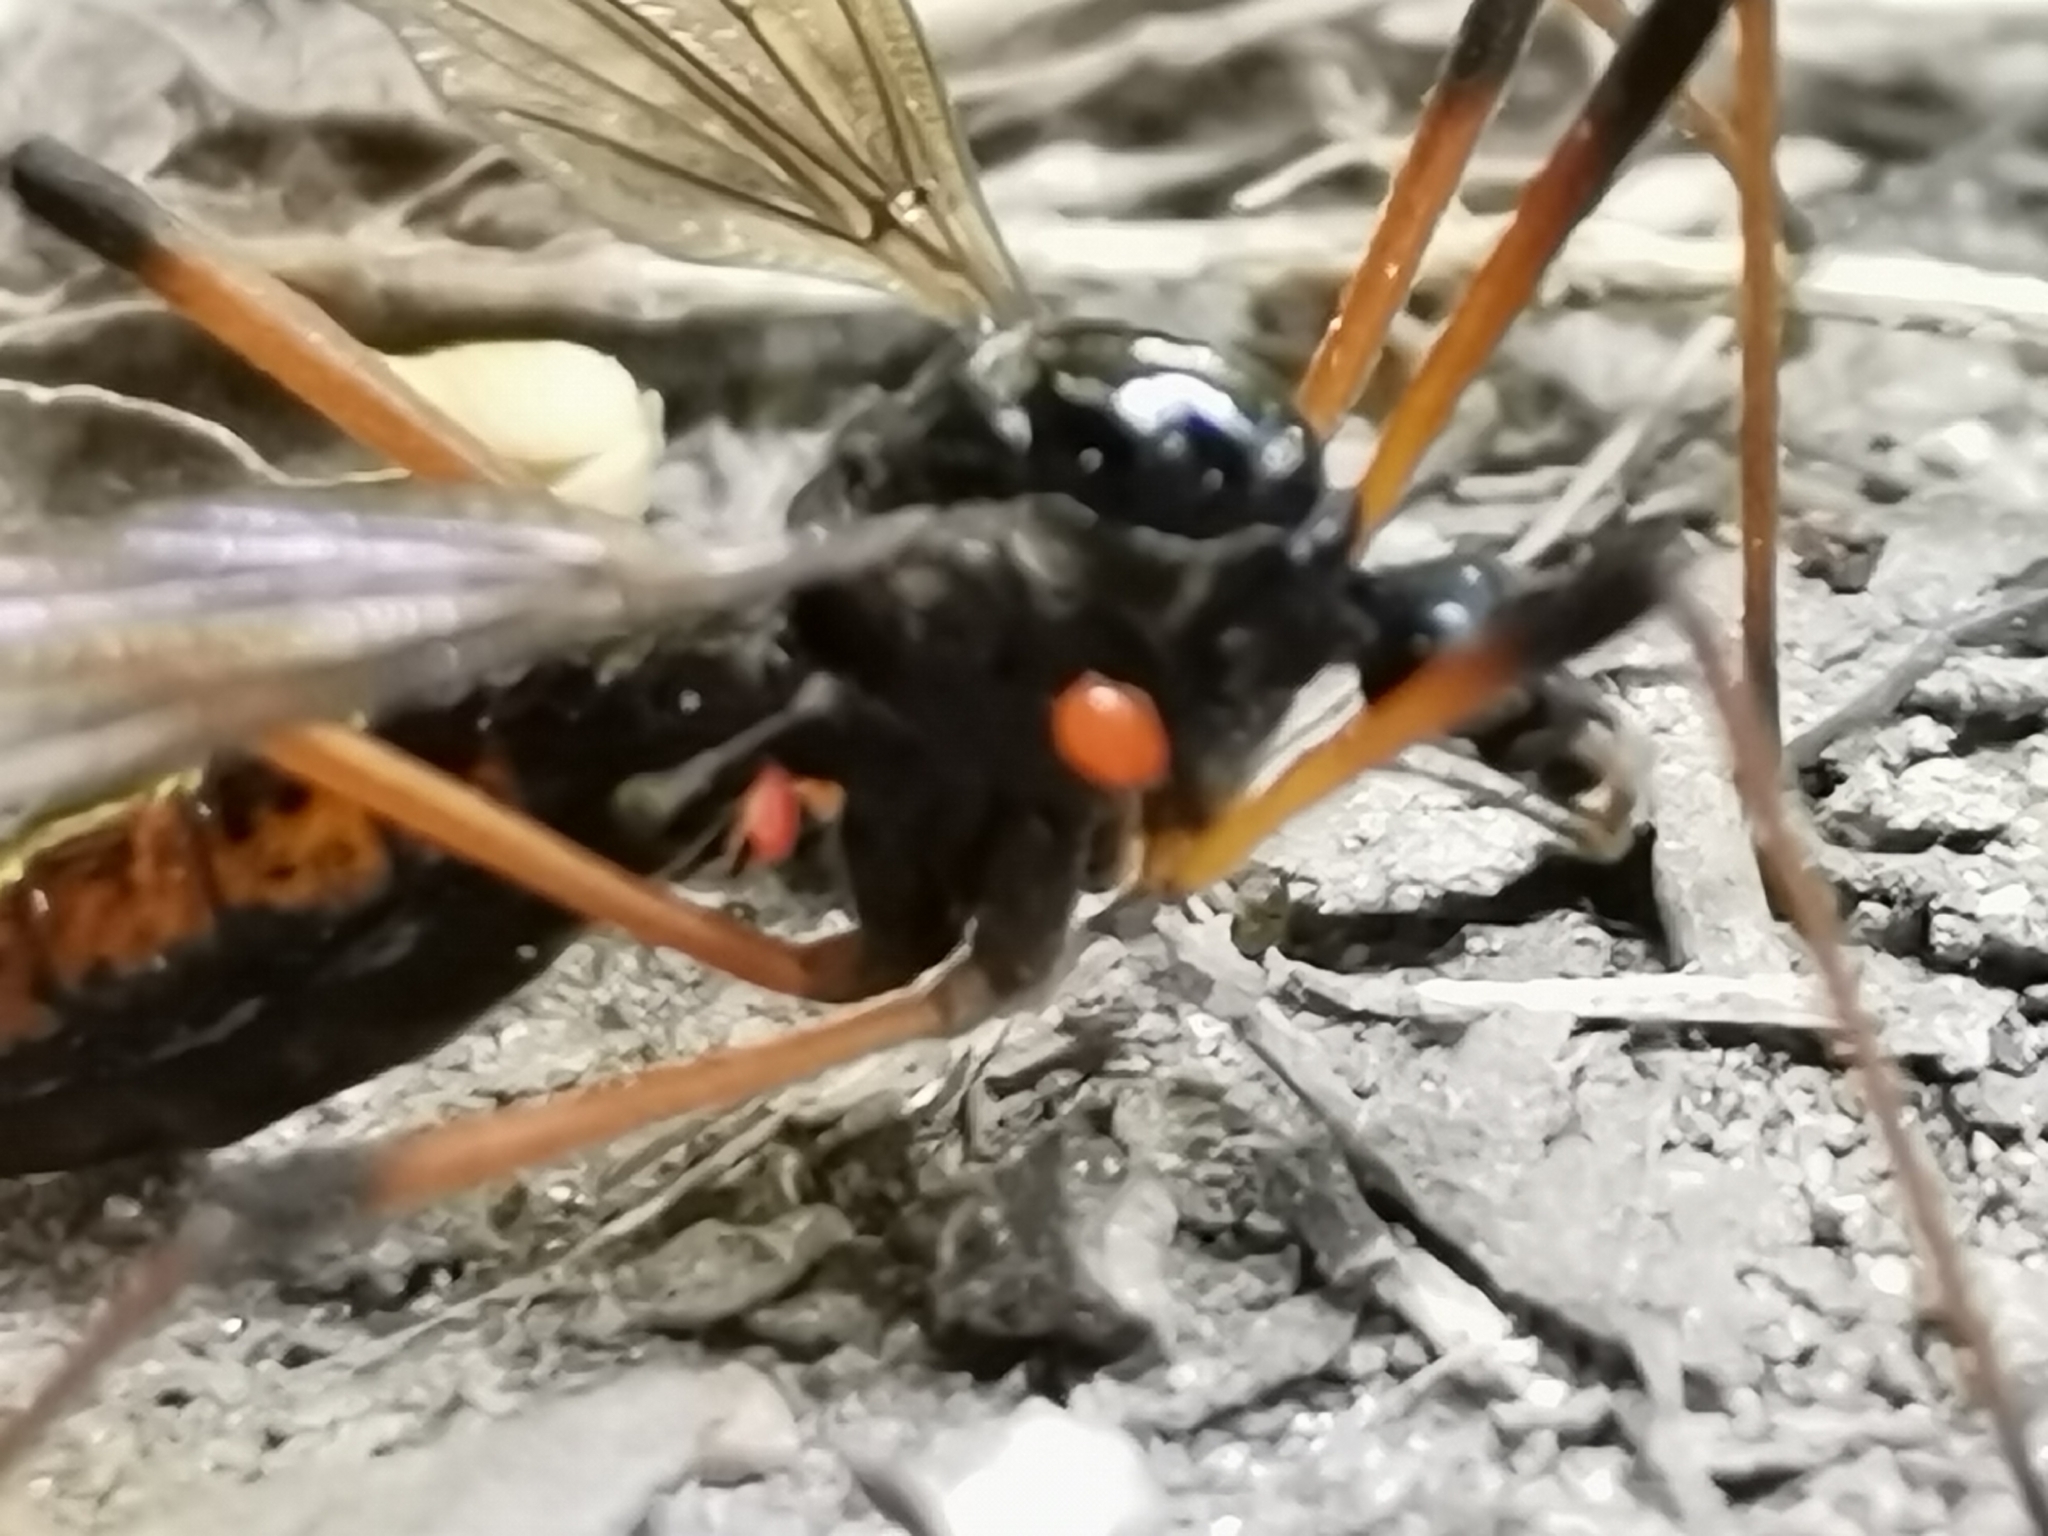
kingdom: Animalia
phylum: Arthropoda
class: Insecta
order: Diptera
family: Tipulidae
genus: Dictenidia
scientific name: Dictenidia bimaculata
